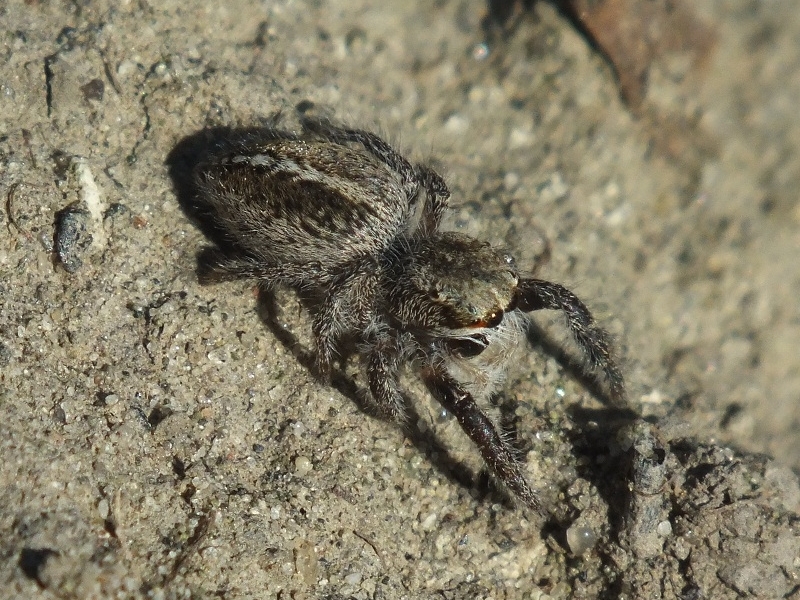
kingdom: Animalia
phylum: Arthropoda
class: Arachnida
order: Araneae
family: Salticidae
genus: Pellenes
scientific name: Pellenes seriatus
